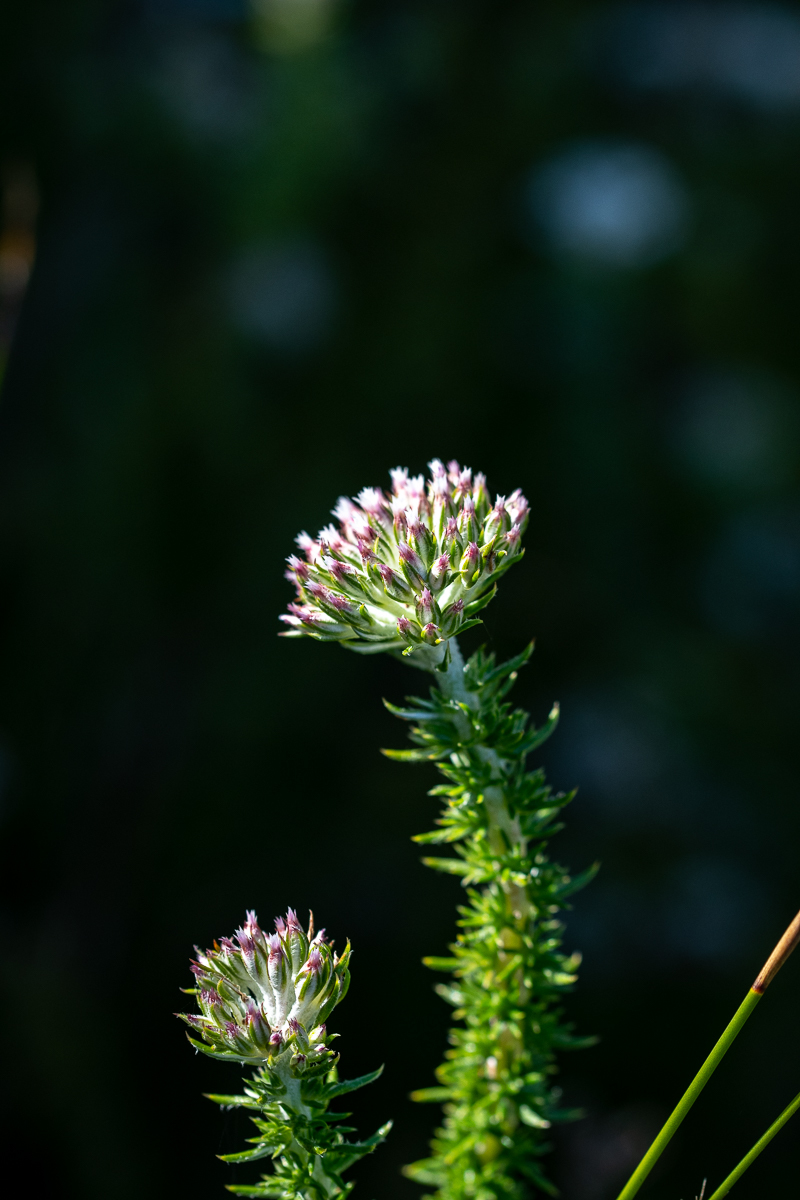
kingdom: Plantae
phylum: Tracheophyta
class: Magnoliopsida
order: Asterales
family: Asteraceae
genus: Metalasia
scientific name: Metalasia lichtensteinii
